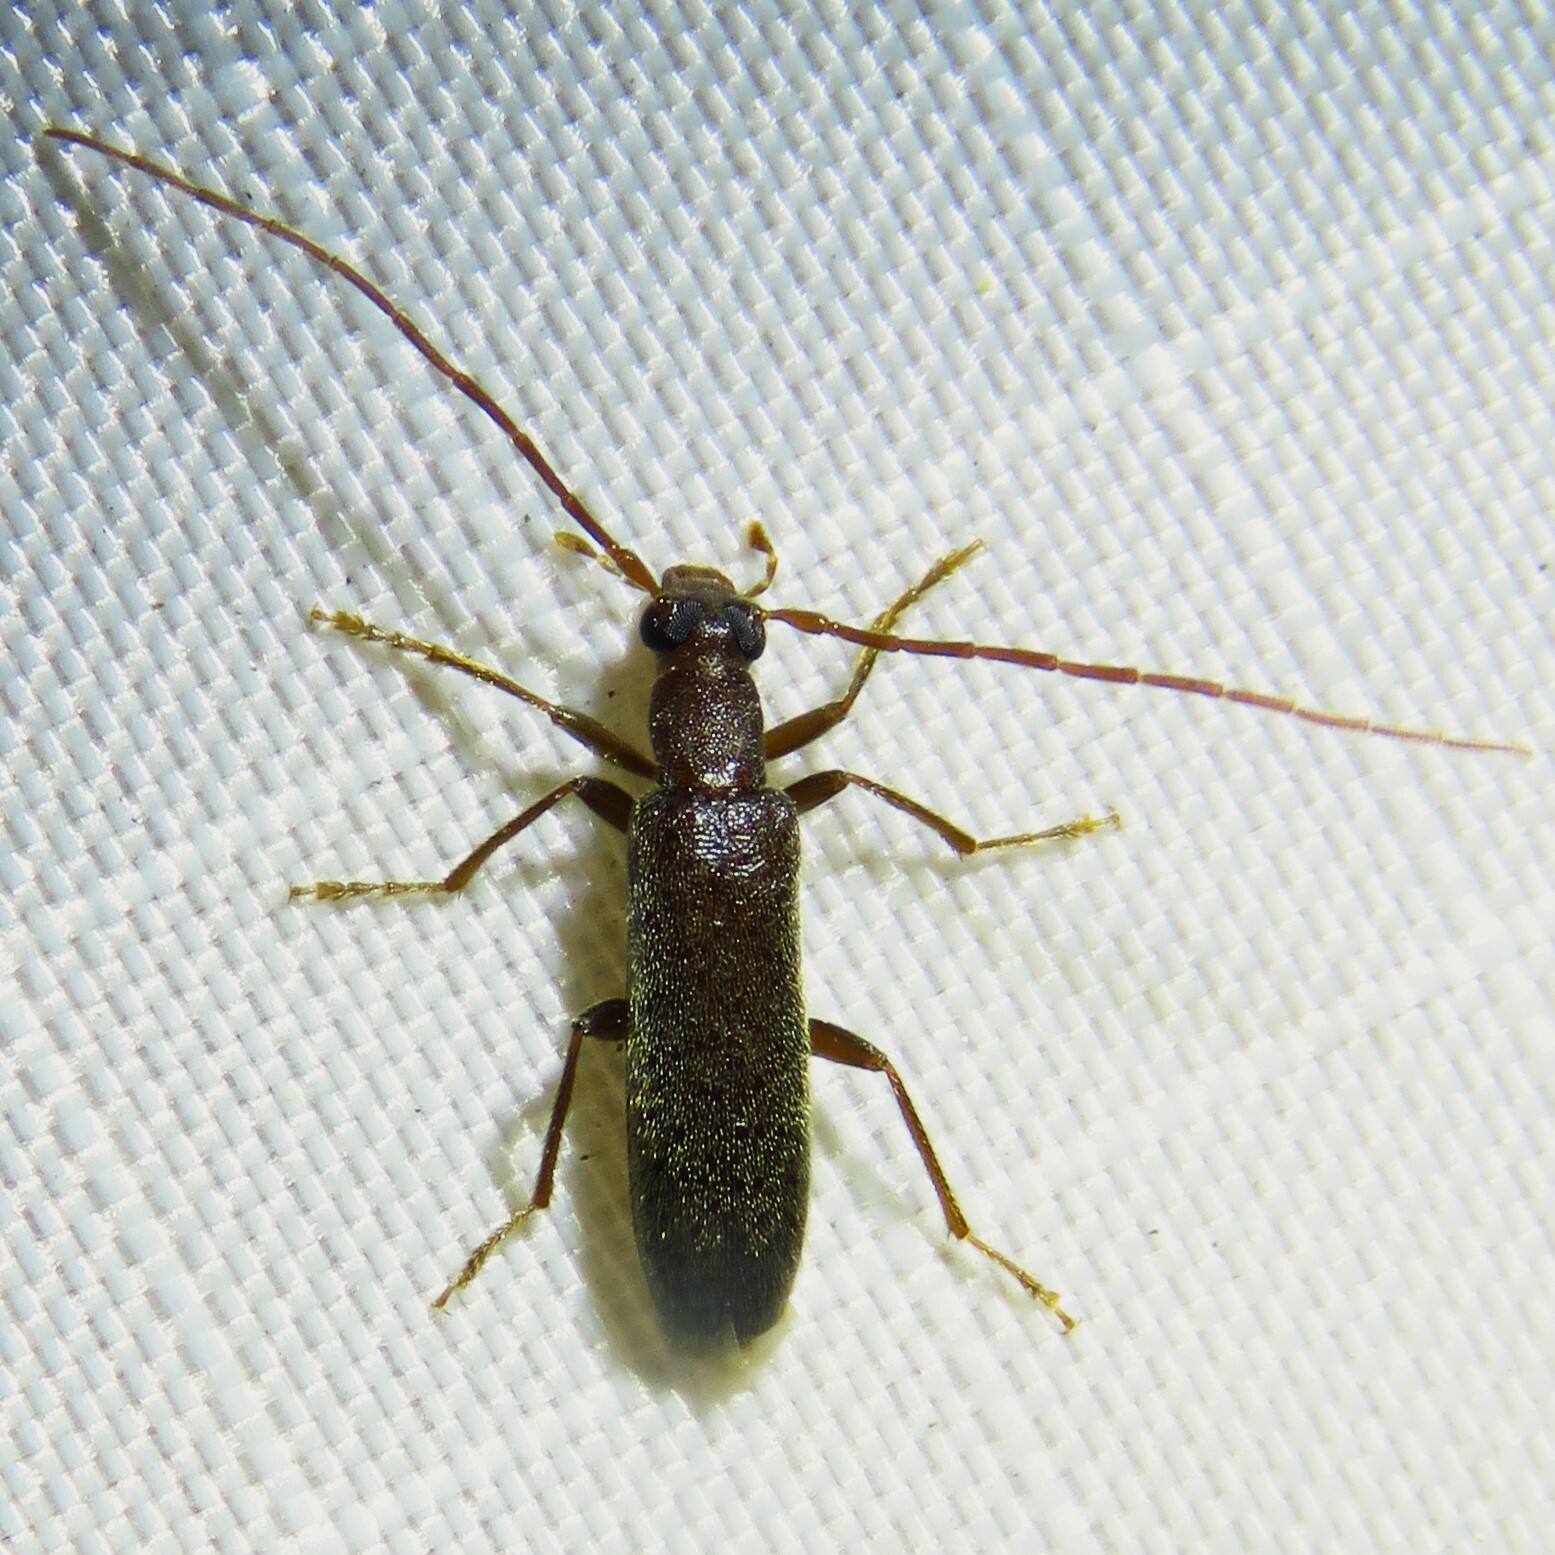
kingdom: Animalia
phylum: Arthropoda
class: Insecta
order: Coleoptera
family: Oedemeridae
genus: Sparedrus
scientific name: Sparedrus aspersus
